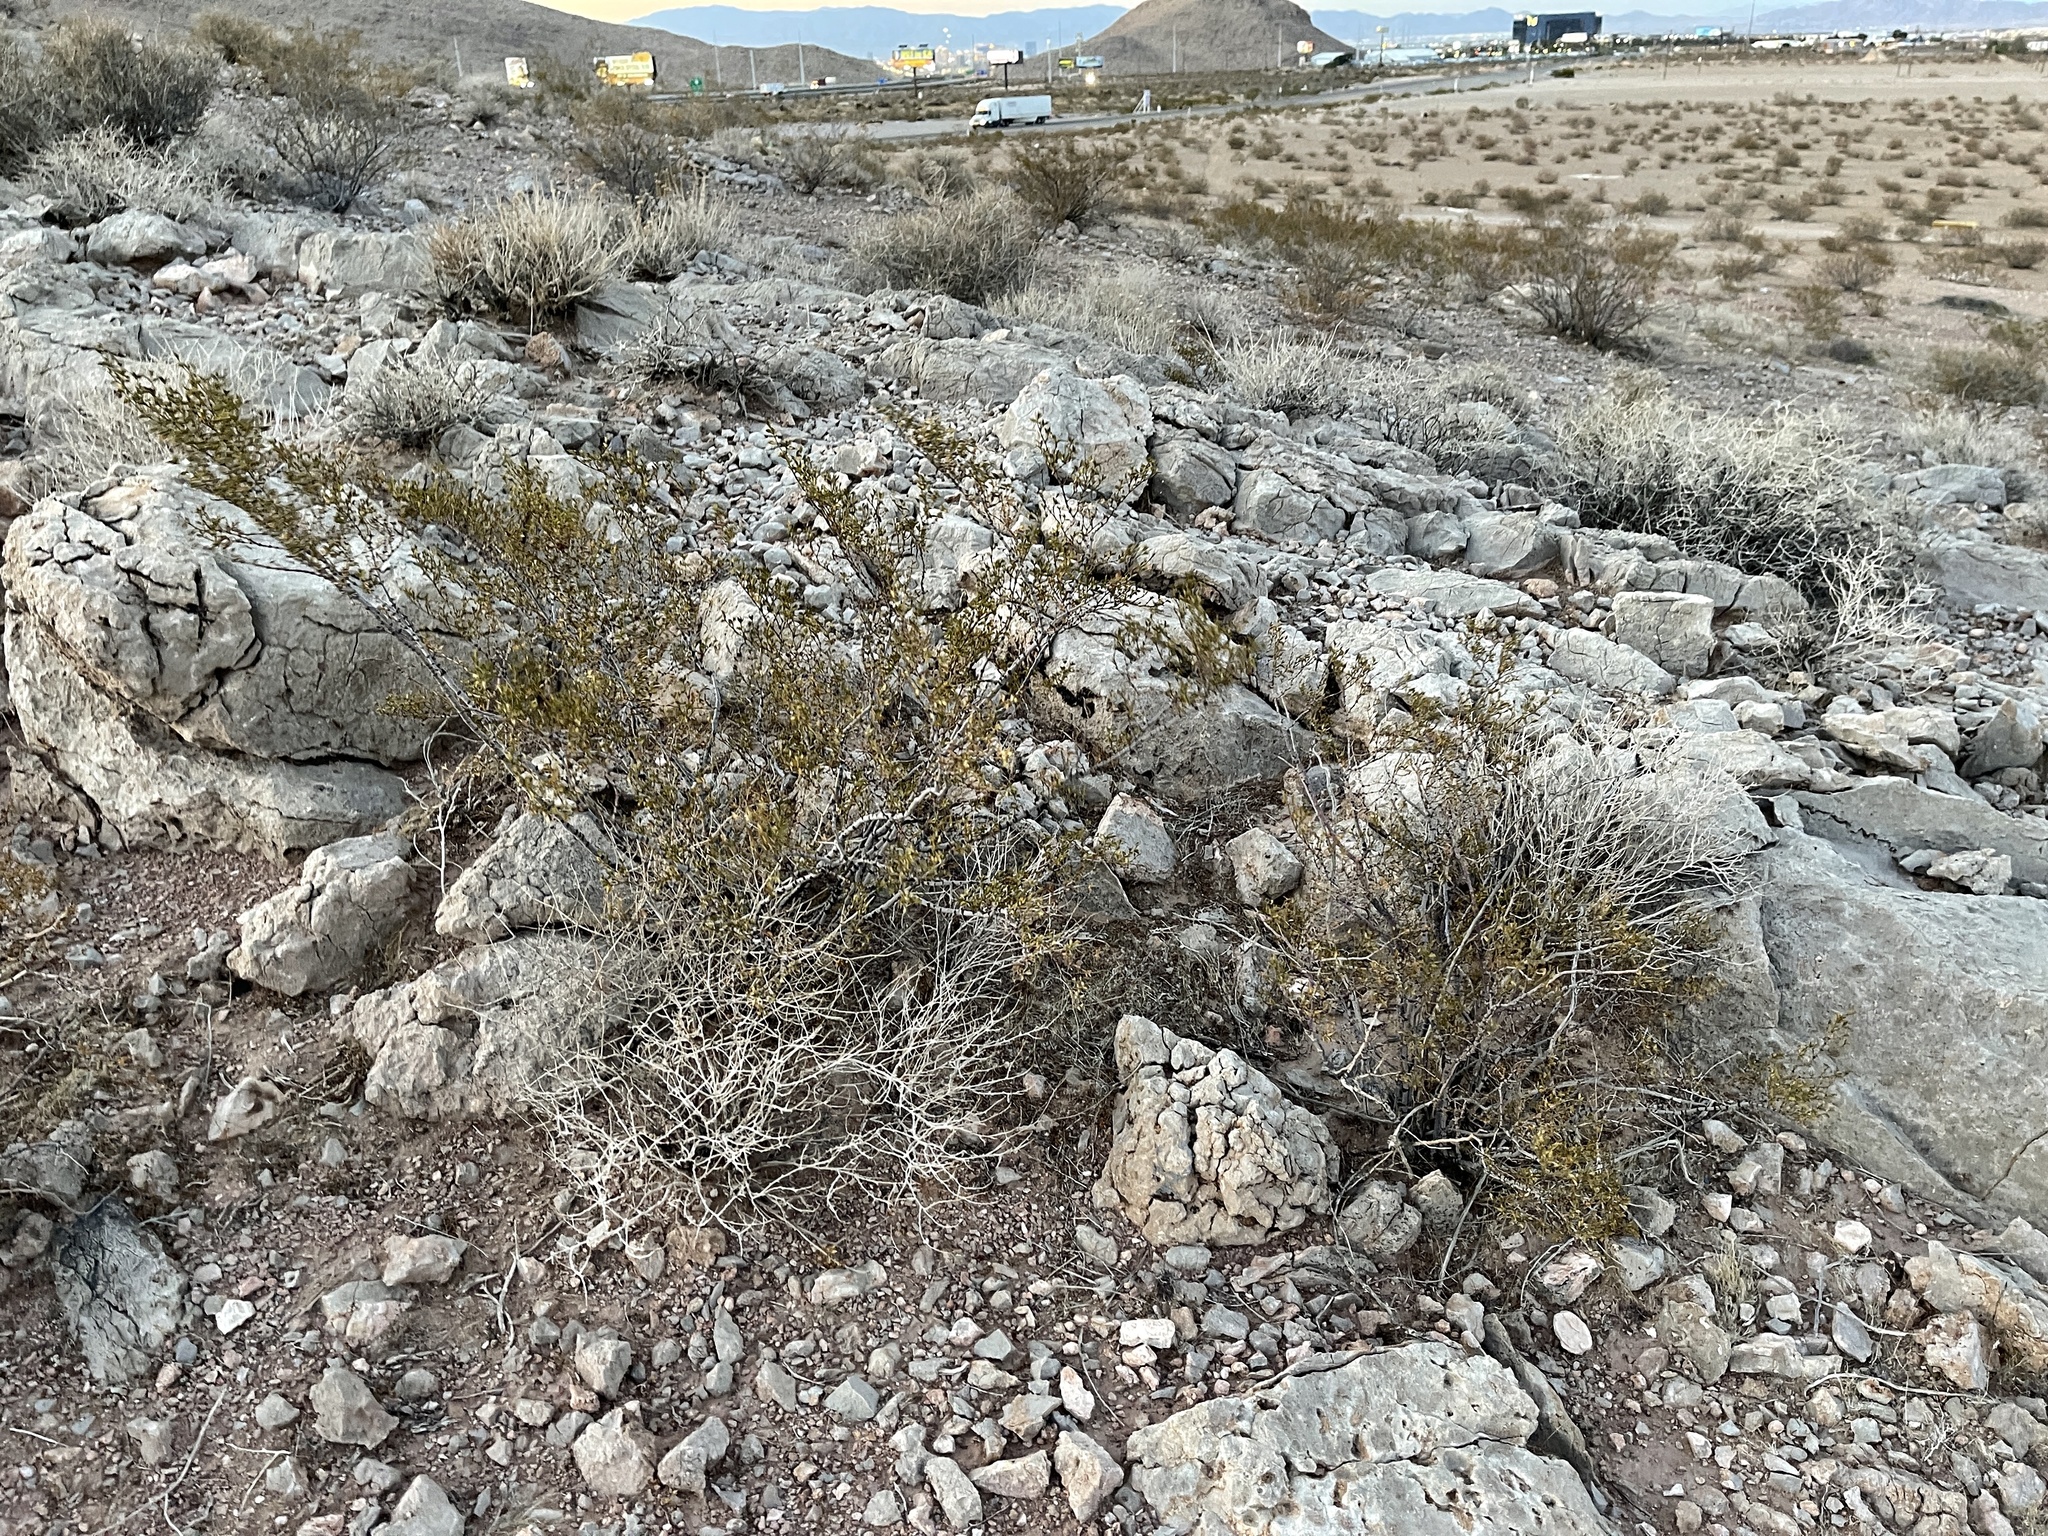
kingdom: Plantae
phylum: Tracheophyta
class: Magnoliopsida
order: Zygophyllales
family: Zygophyllaceae
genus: Larrea
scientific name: Larrea tridentata
